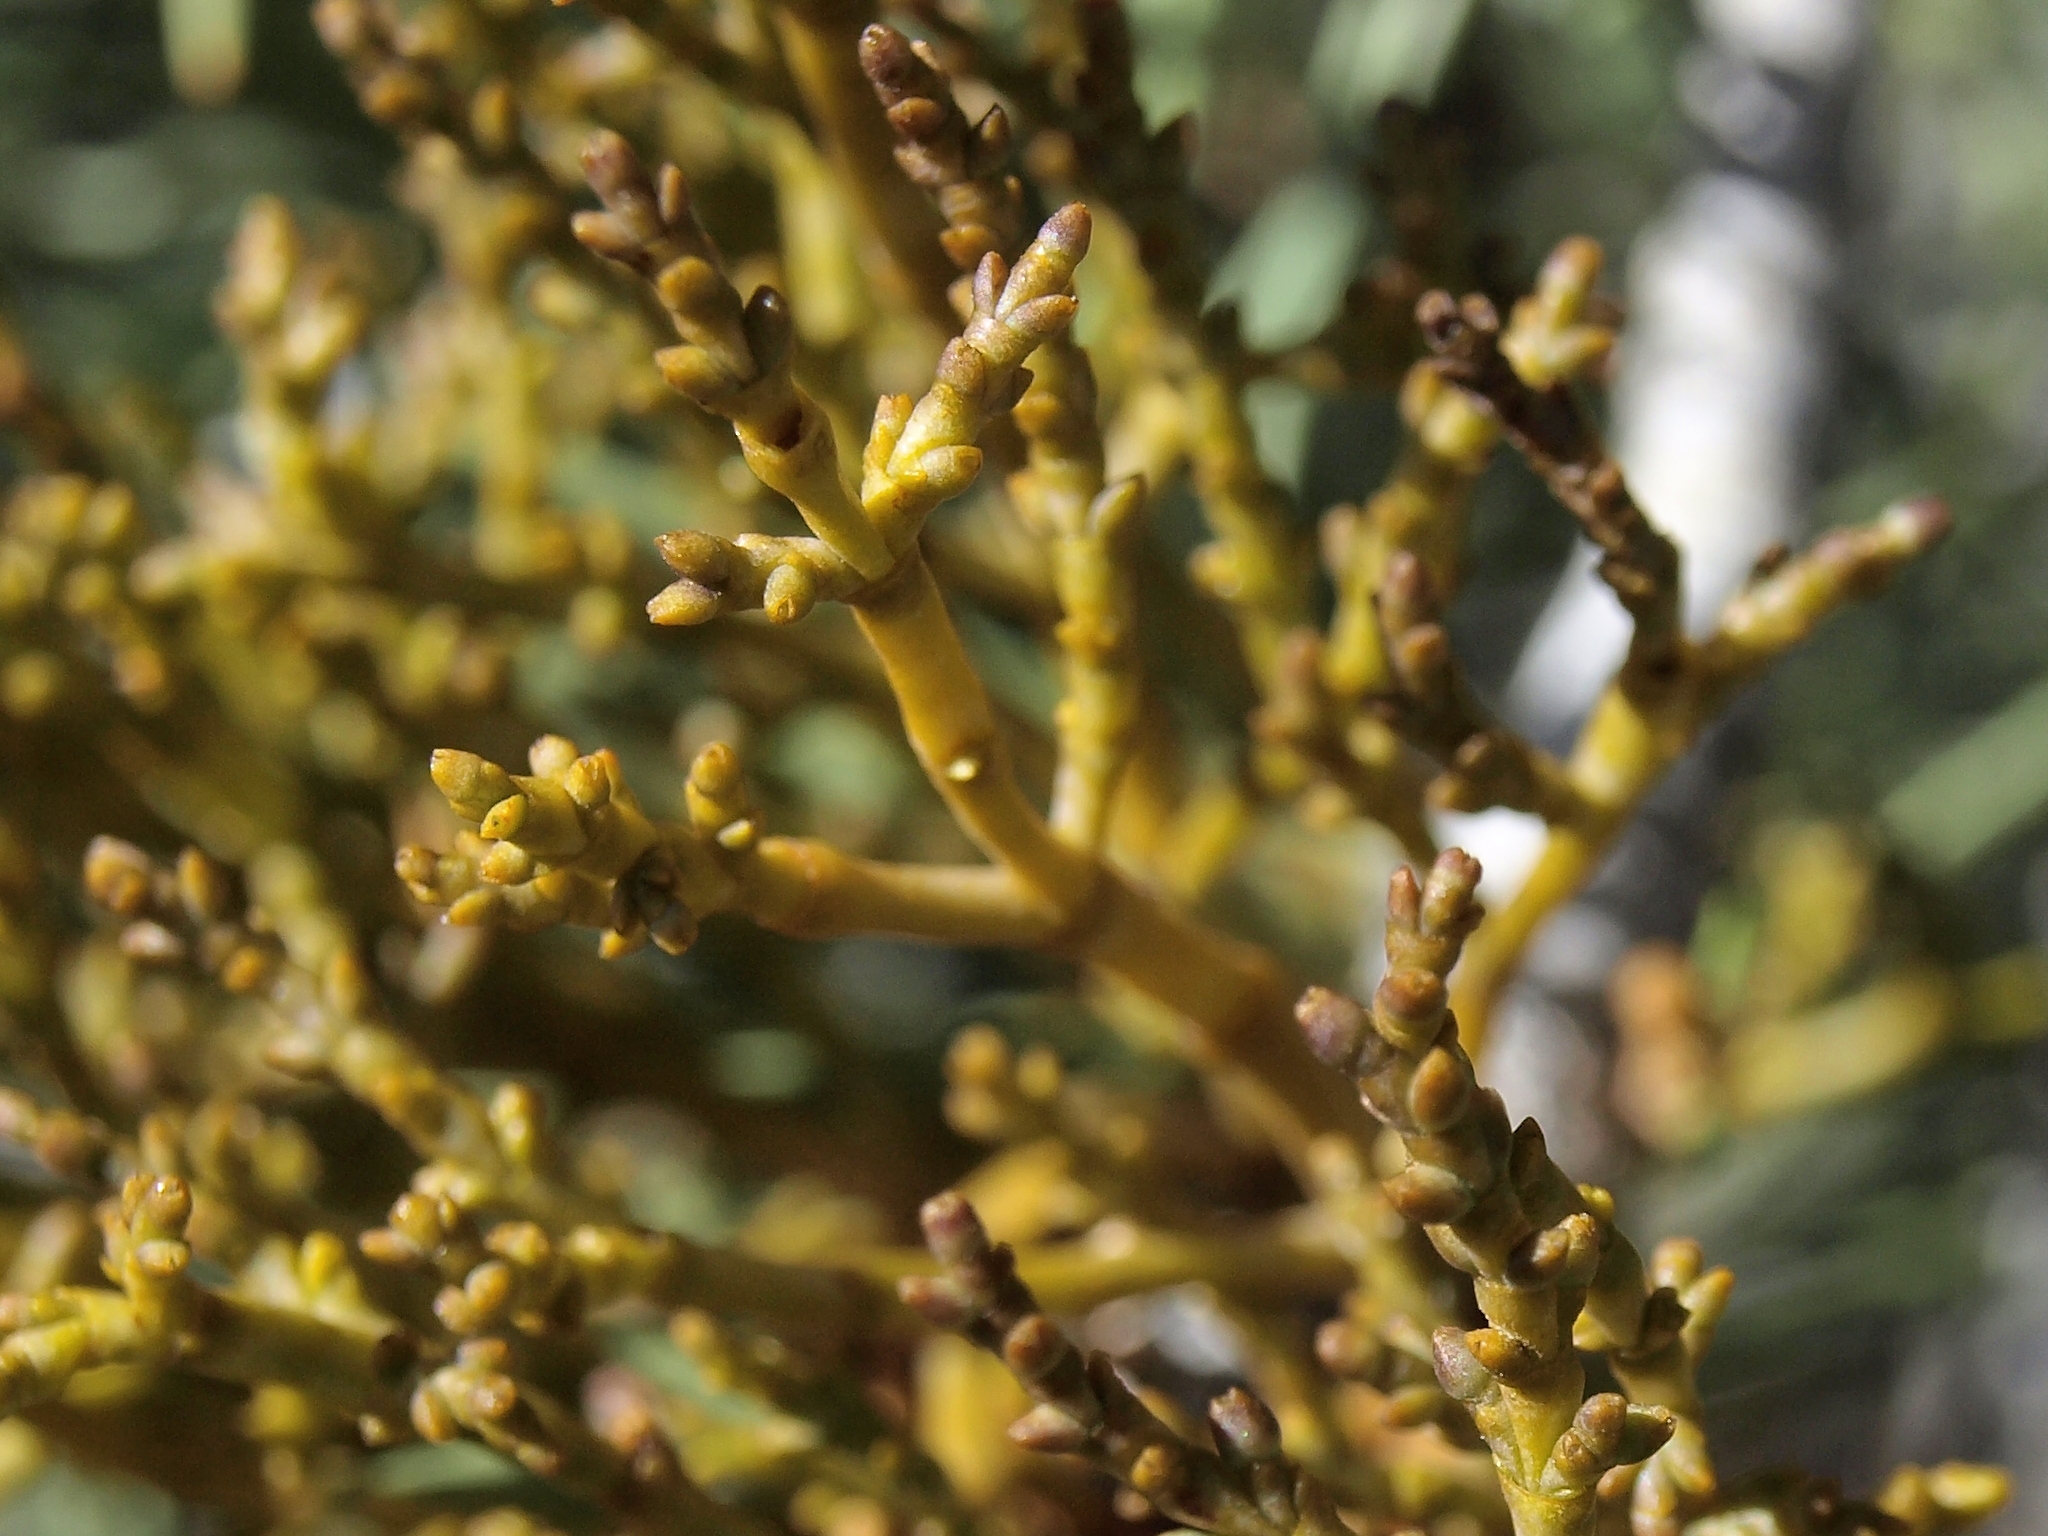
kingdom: Plantae
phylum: Tracheophyta
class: Magnoliopsida
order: Santalales
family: Viscaceae
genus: Arceuthobium
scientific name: Arceuthobium divaricatum
